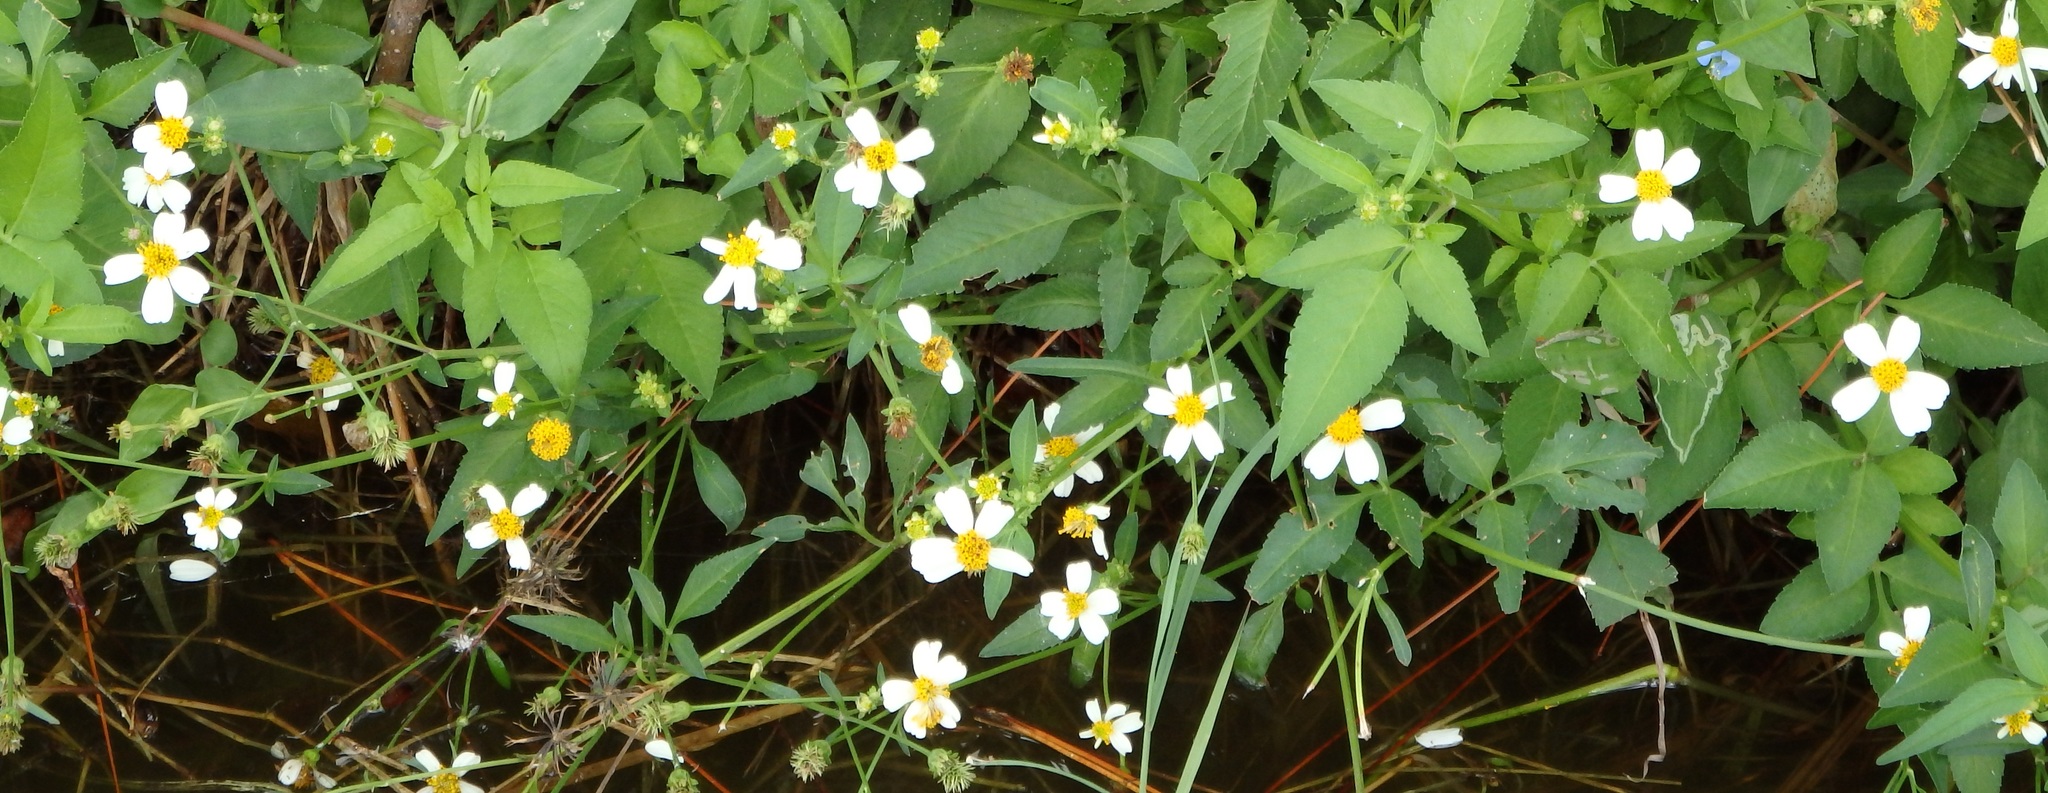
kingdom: Plantae
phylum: Tracheophyta
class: Magnoliopsida
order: Asterales
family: Asteraceae
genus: Bidens
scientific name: Bidens alba
